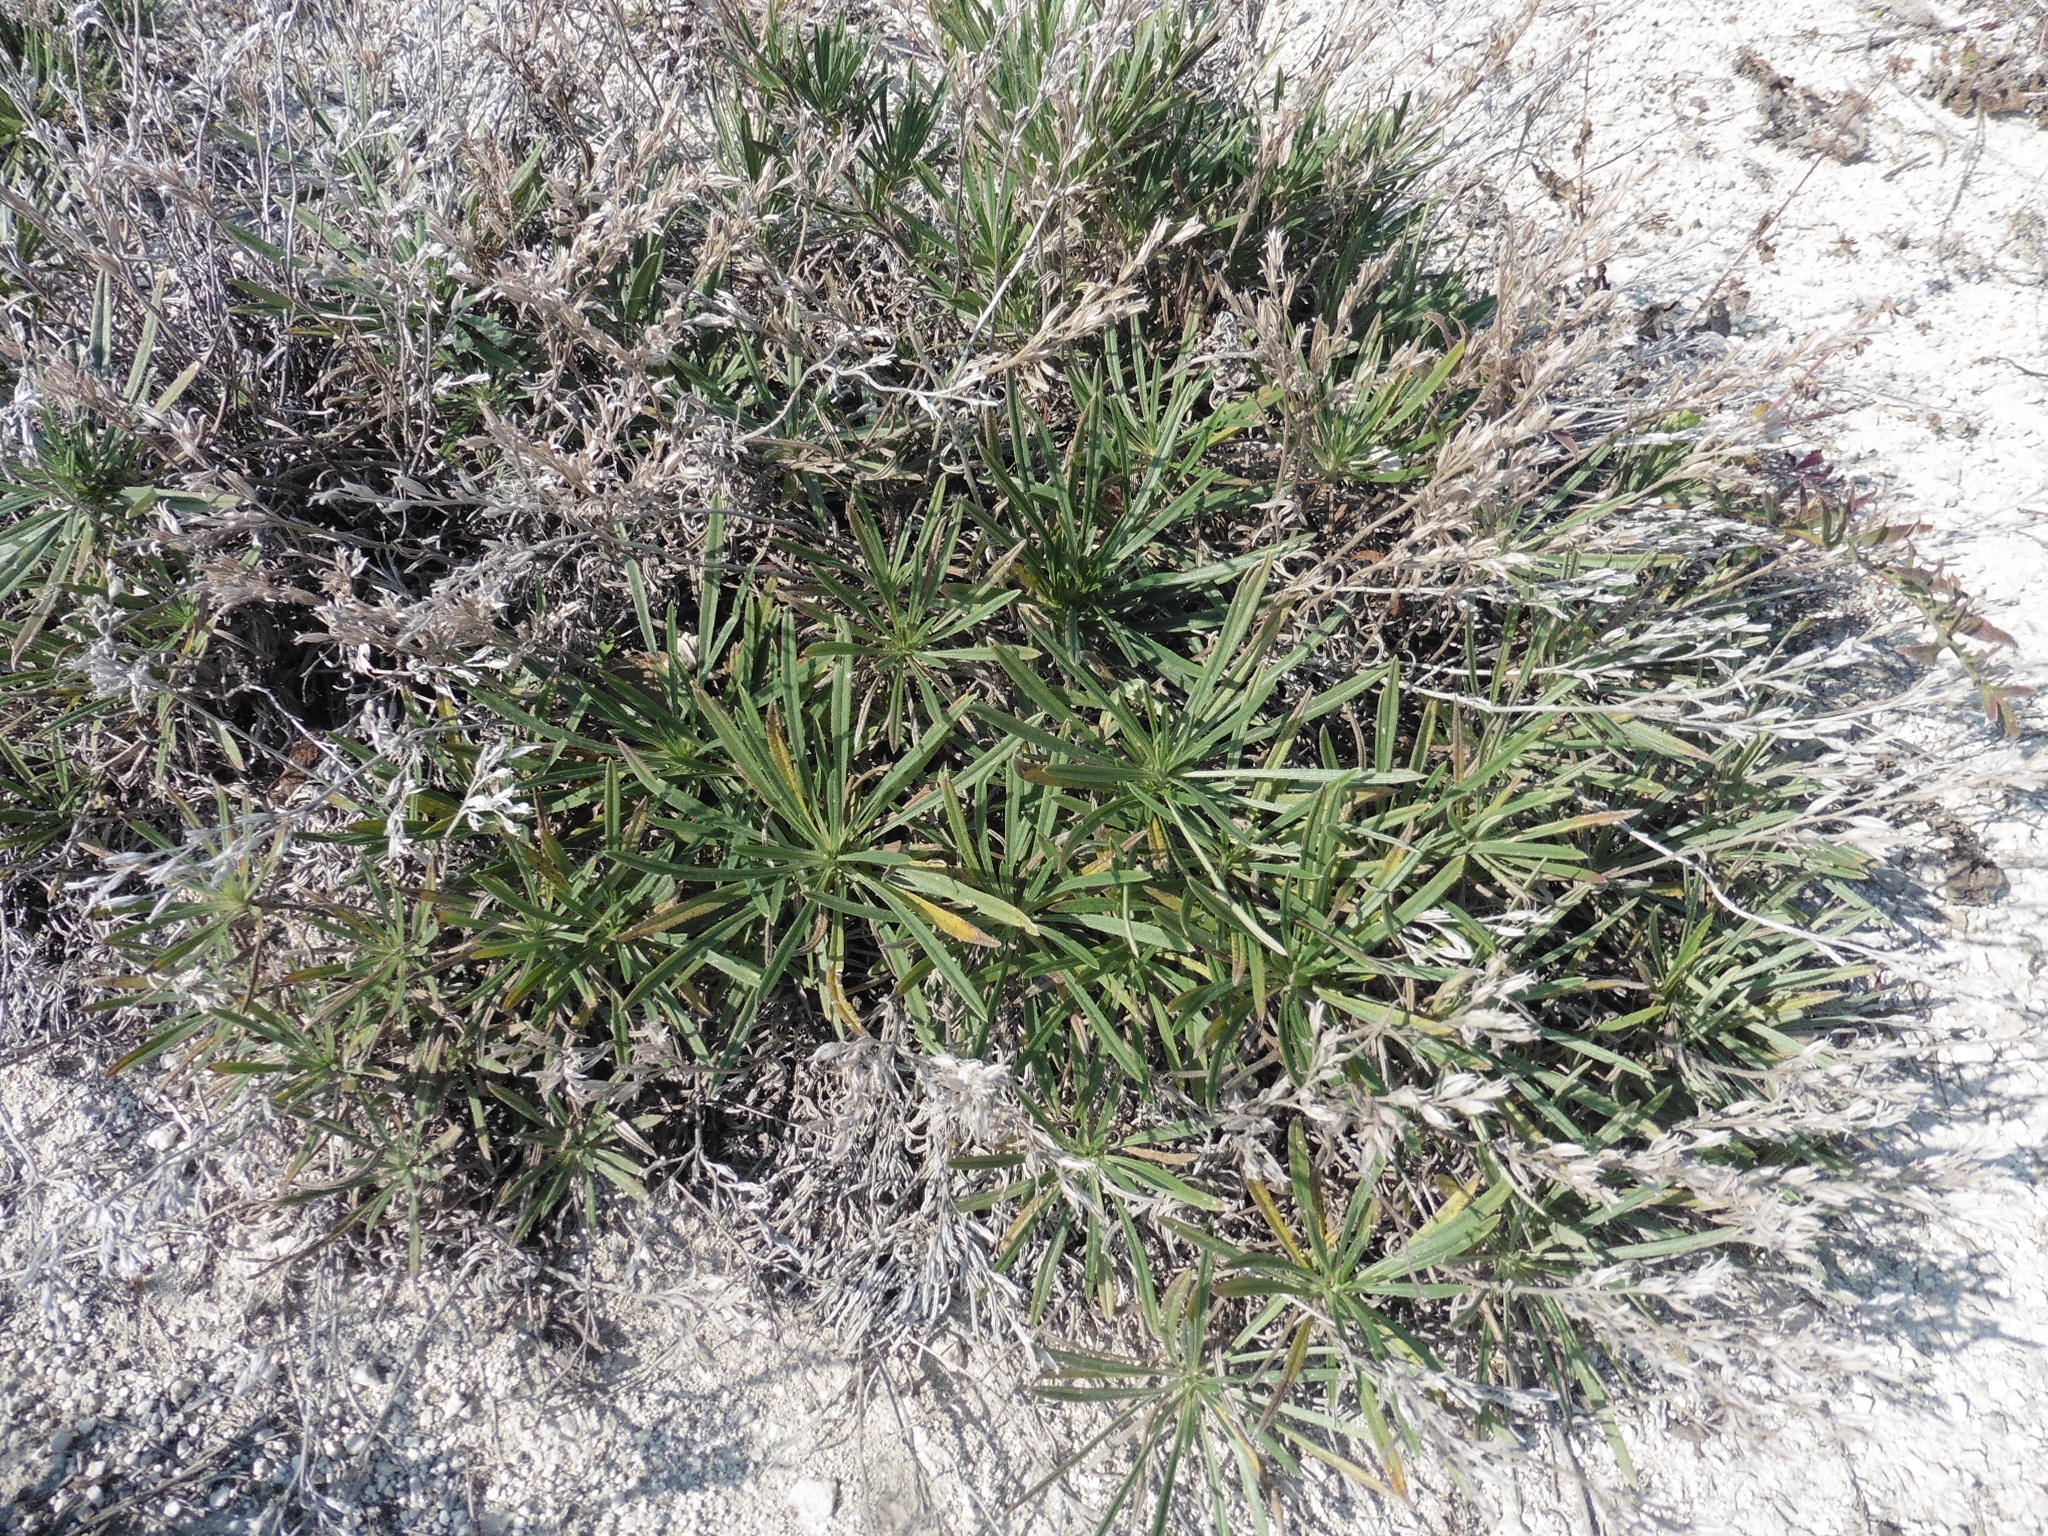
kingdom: Plantae
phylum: Tracheophyta
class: Magnoliopsida
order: Boraginales
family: Boraginaceae
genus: Onosma
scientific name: Onosma simplicissima
